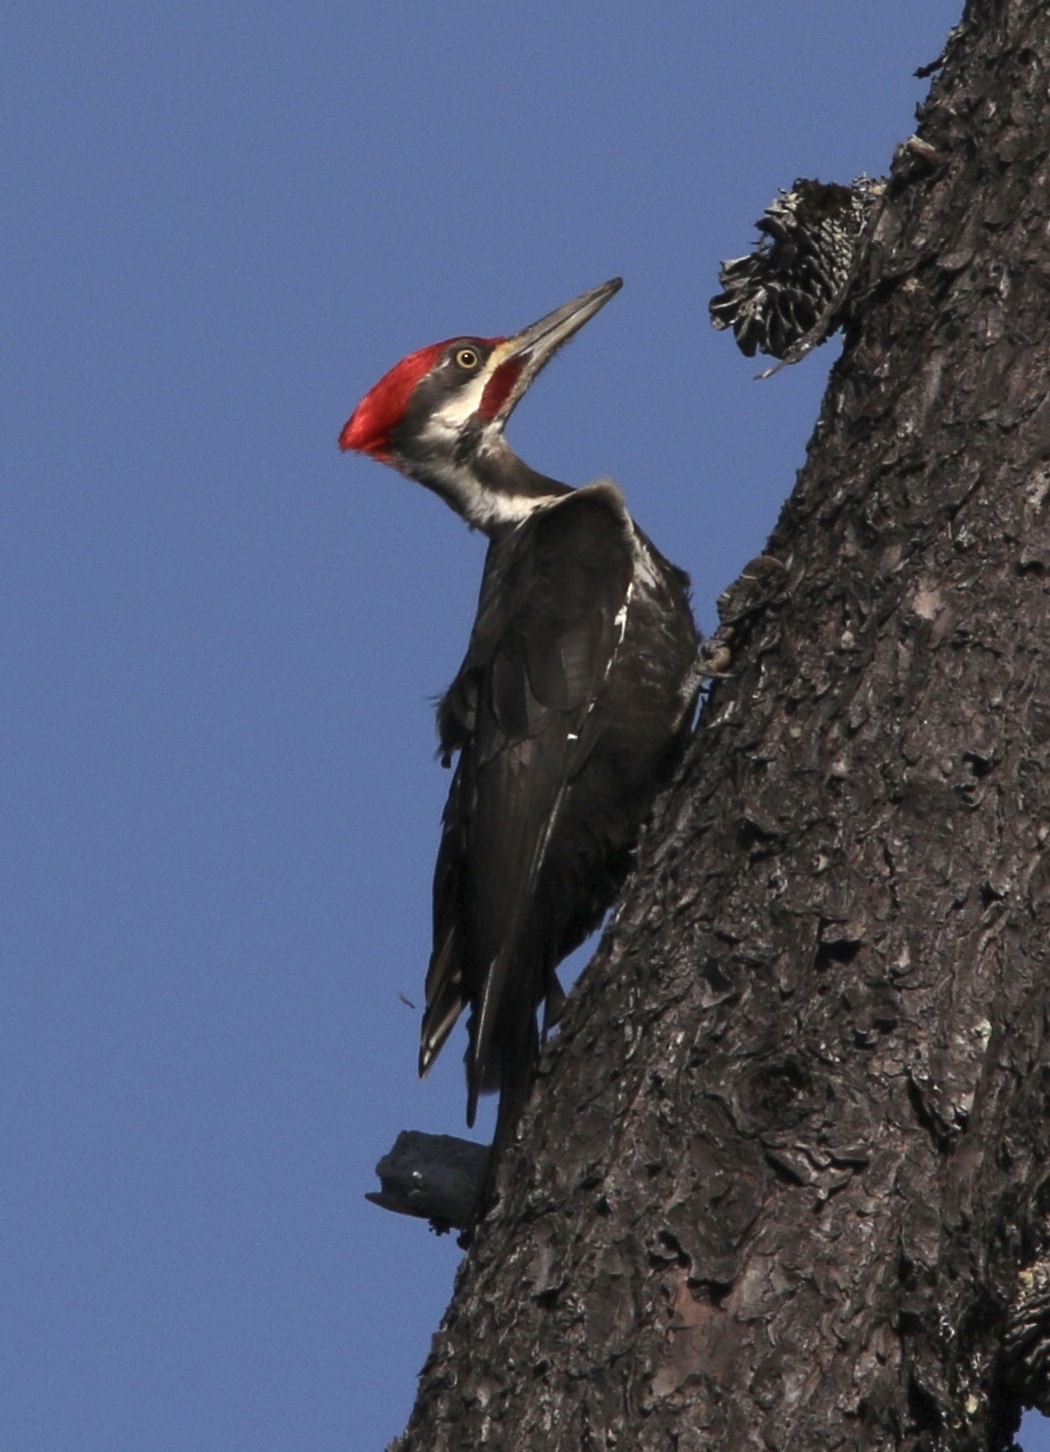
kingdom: Animalia
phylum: Chordata
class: Aves
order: Piciformes
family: Picidae
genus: Dryocopus
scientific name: Dryocopus pileatus
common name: Pileated woodpecker
